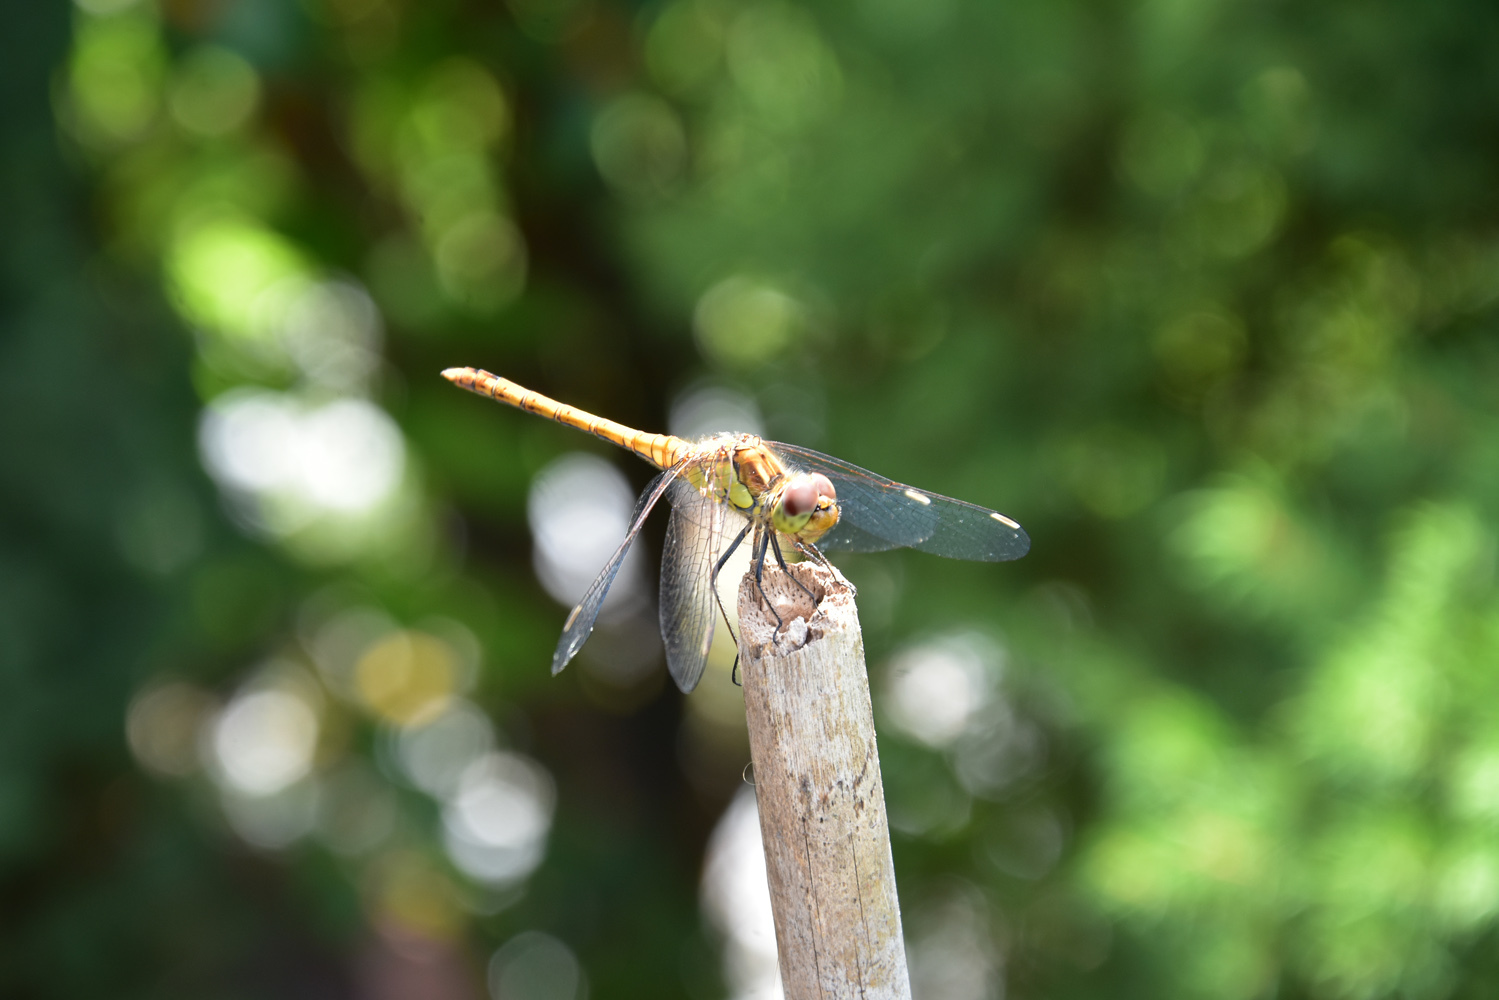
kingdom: Animalia
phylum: Arthropoda
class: Insecta
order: Odonata
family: Libellulidae
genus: Sympetrum
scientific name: Sympetrum striolatum
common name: Common darter
